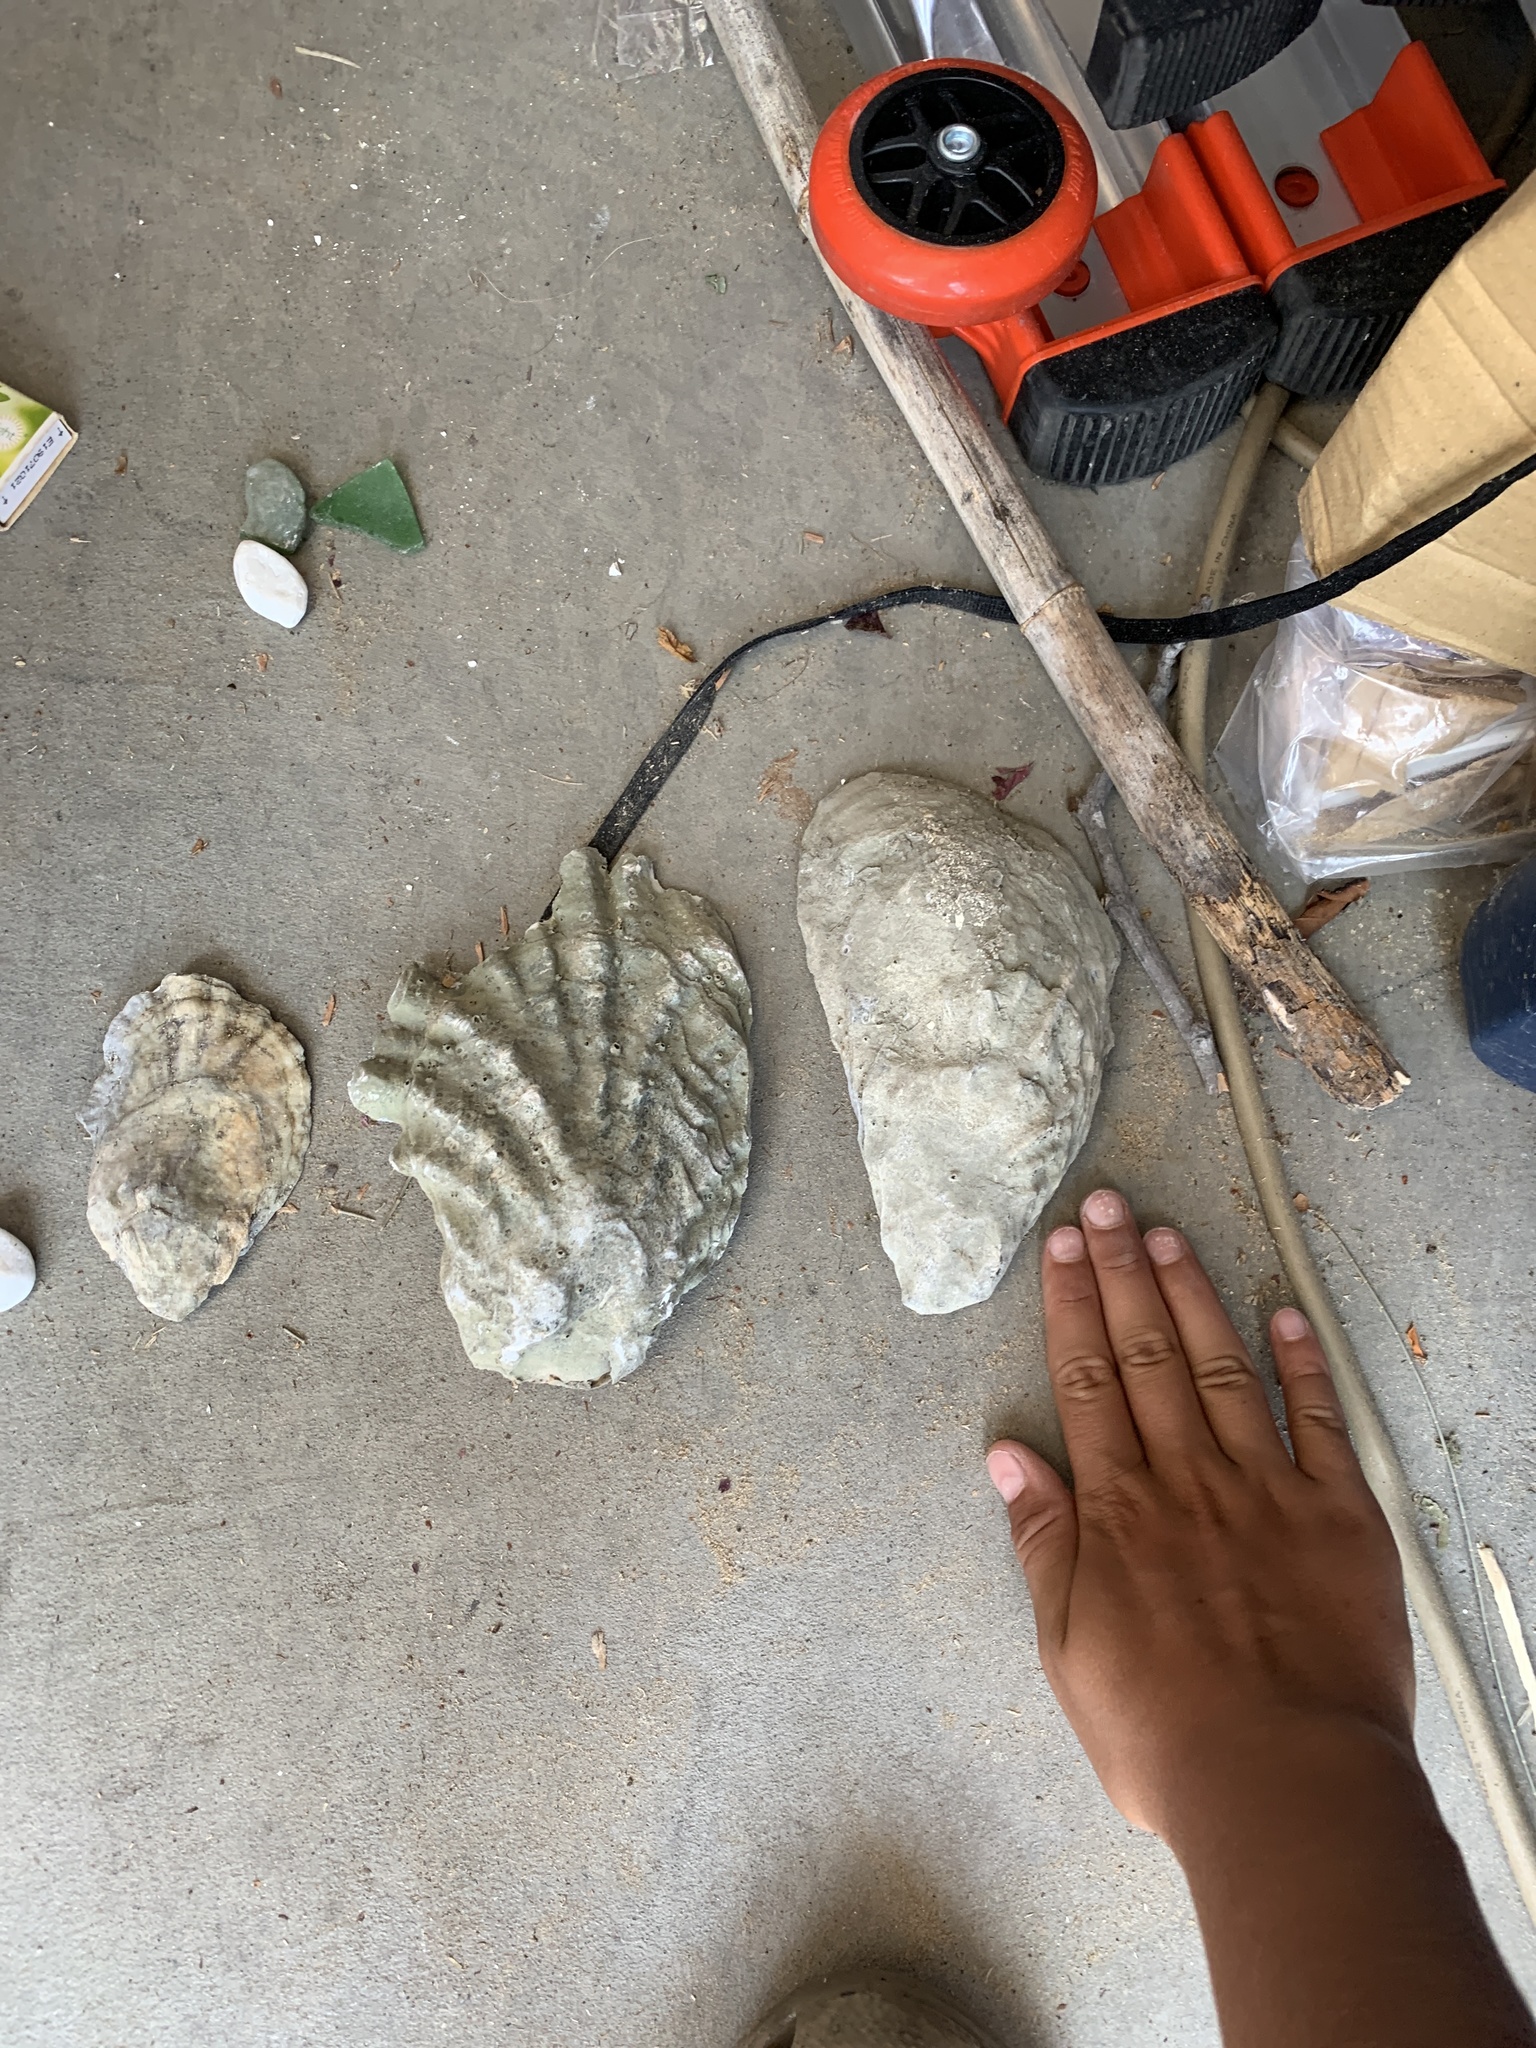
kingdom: Animalia
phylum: Mollusca
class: Bivalvia
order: Ostreida
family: Ostreidae
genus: Magallana
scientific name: Magallana gigas
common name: Pacific oyster
